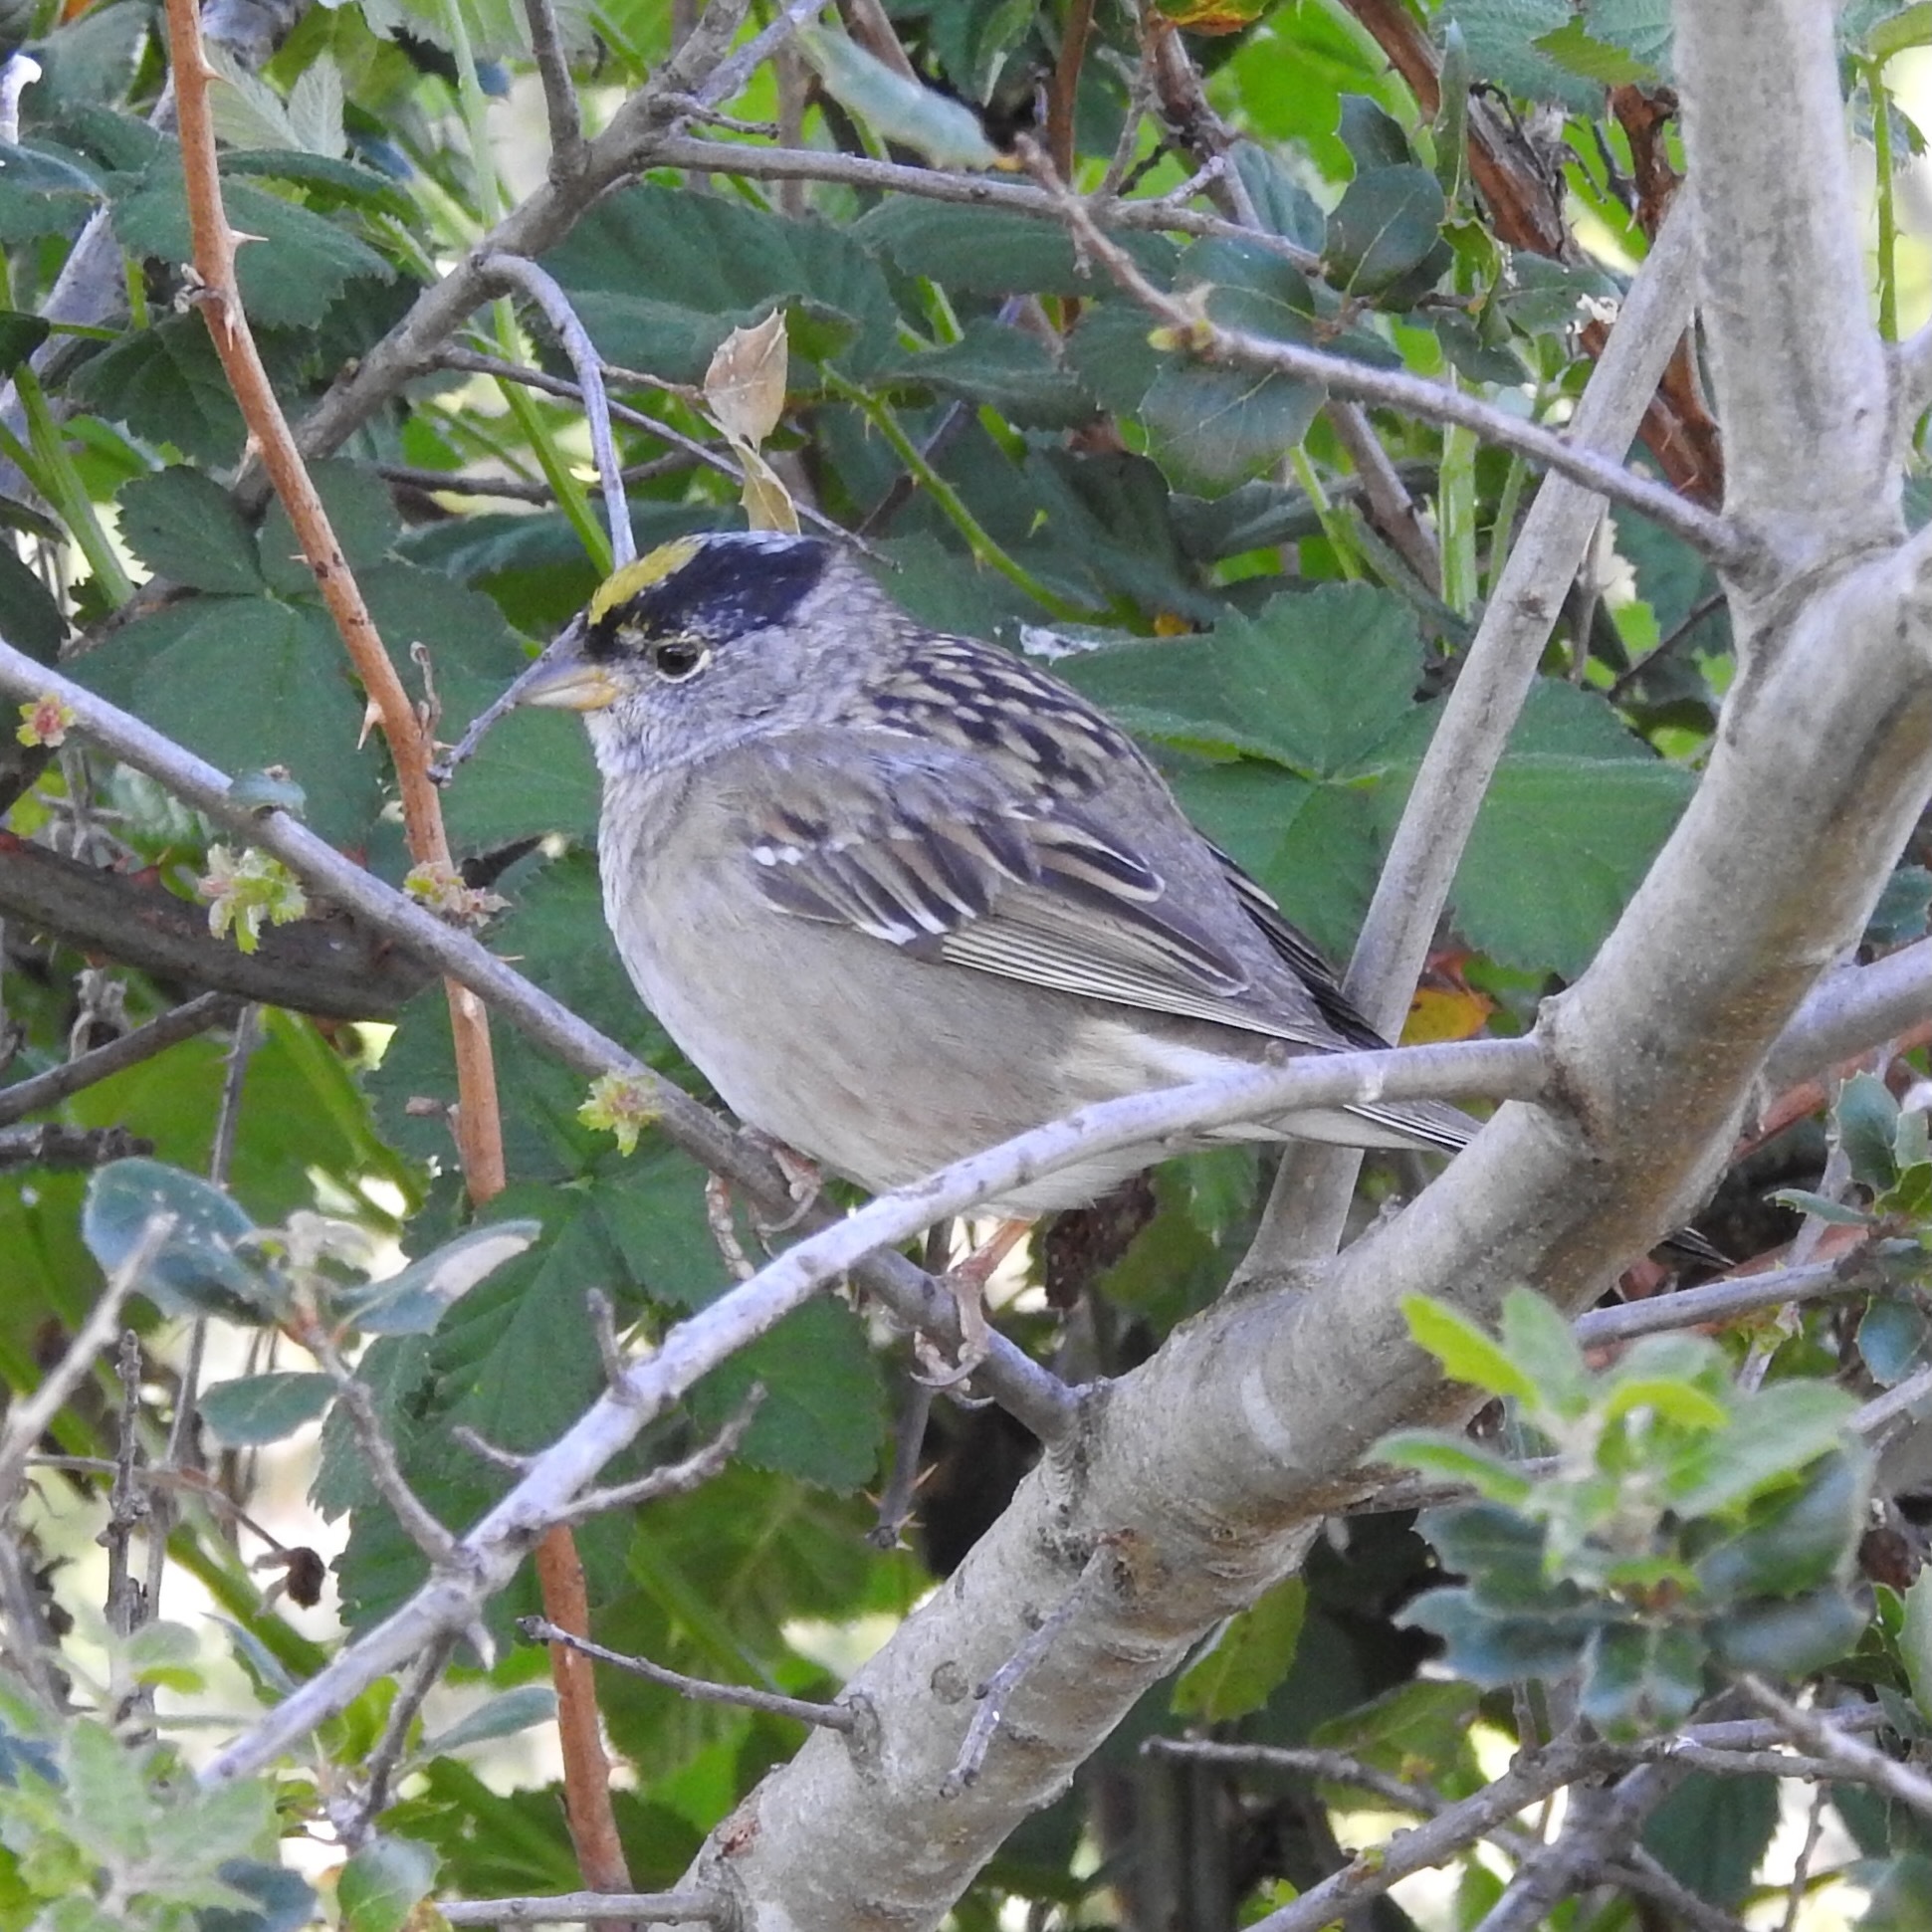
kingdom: Animalia
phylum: Chordata
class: Aves
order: Passeriformes
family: Passerellidae
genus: Zonotrichia
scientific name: Zonotrichia atricapilla
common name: Golden-crowned sparrow
